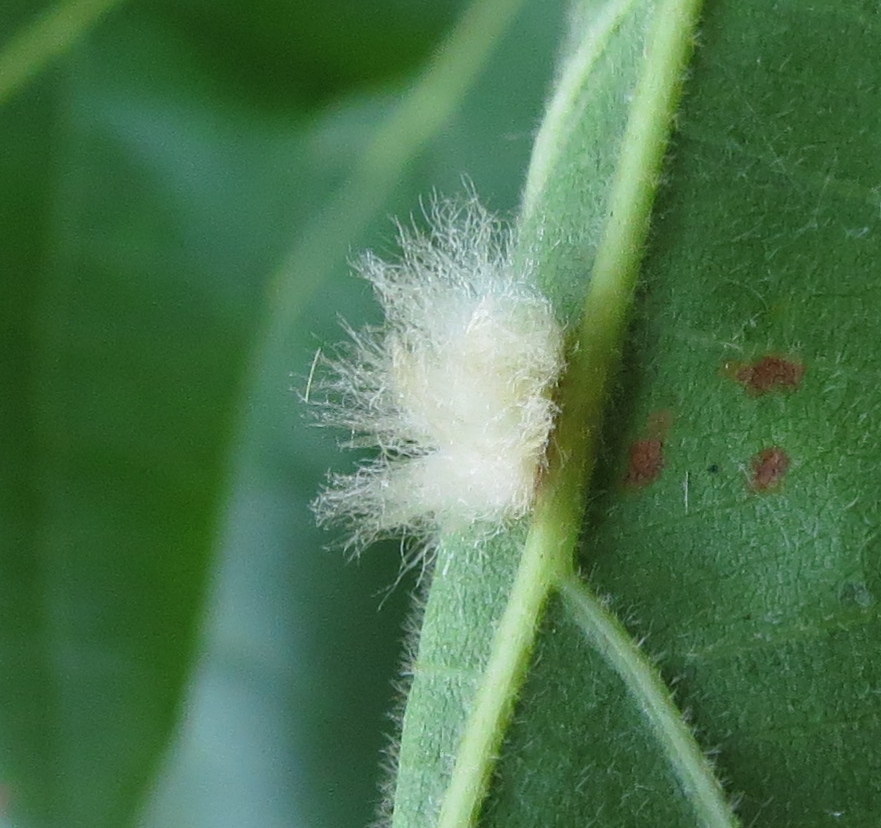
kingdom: Animalia
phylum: Arthropoda
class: Insecta
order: Hymenoptera
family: Cynipidae
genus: Andricus
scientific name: Andricus Druon ignotum
